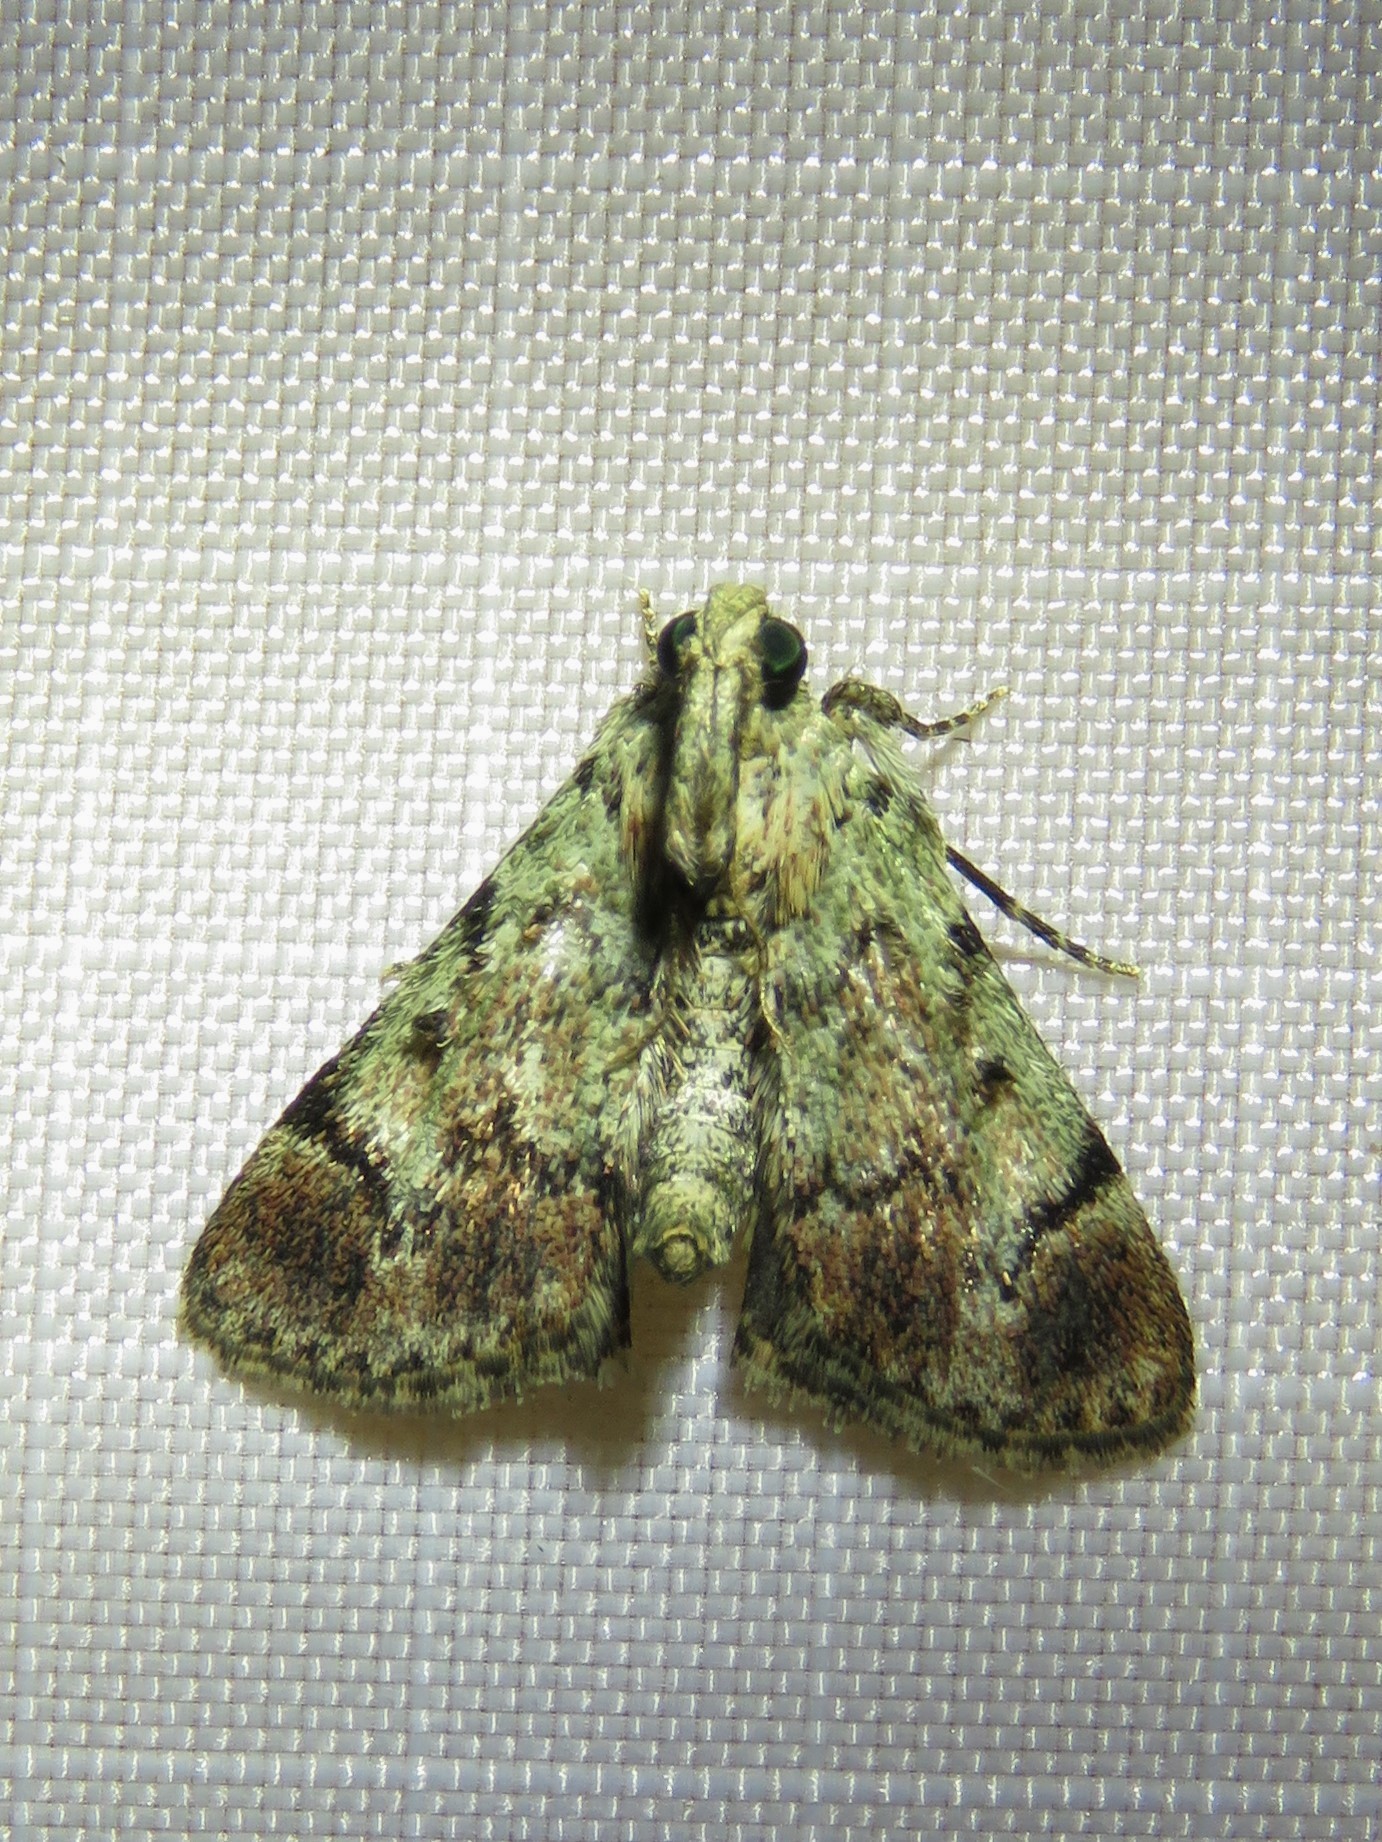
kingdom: Animalia
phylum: Arthropoda
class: Insecta
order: Lepidoptera
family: Pyralidae
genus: Epipaschia
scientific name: Epipaschia superatalis
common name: Dimorphic macalla moth
